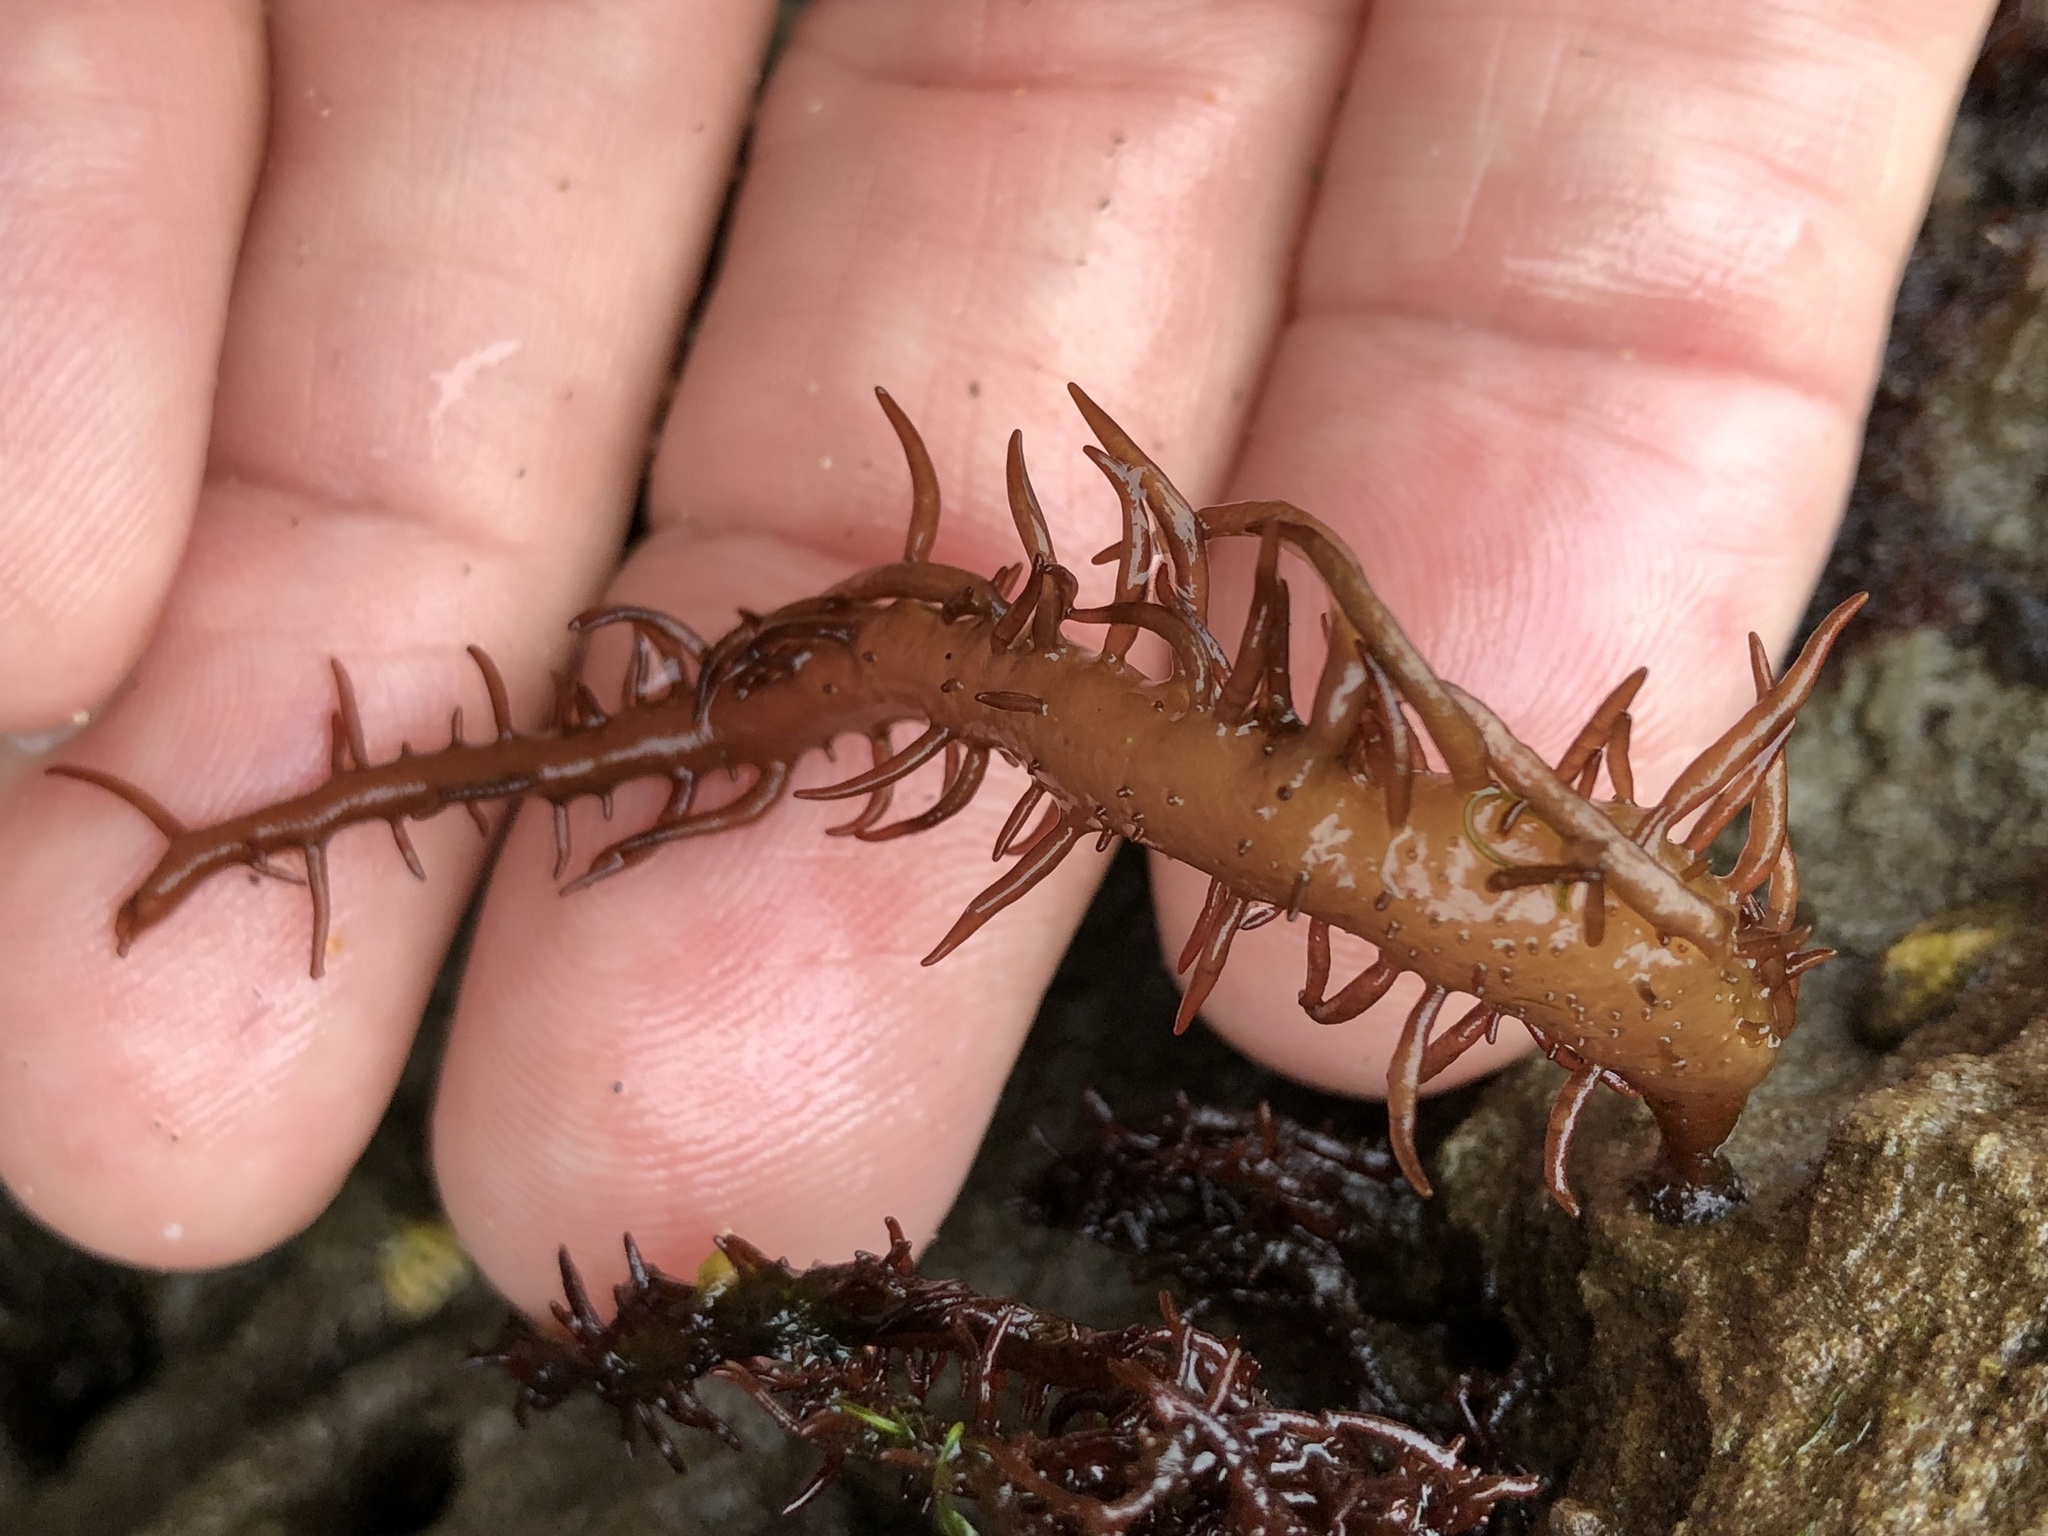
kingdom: Plantae
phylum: Rhodophyta
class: Florideophyceae
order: Nemaliales
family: Liagoraceae
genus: Cumagloia
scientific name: Cumagloia andersonii
